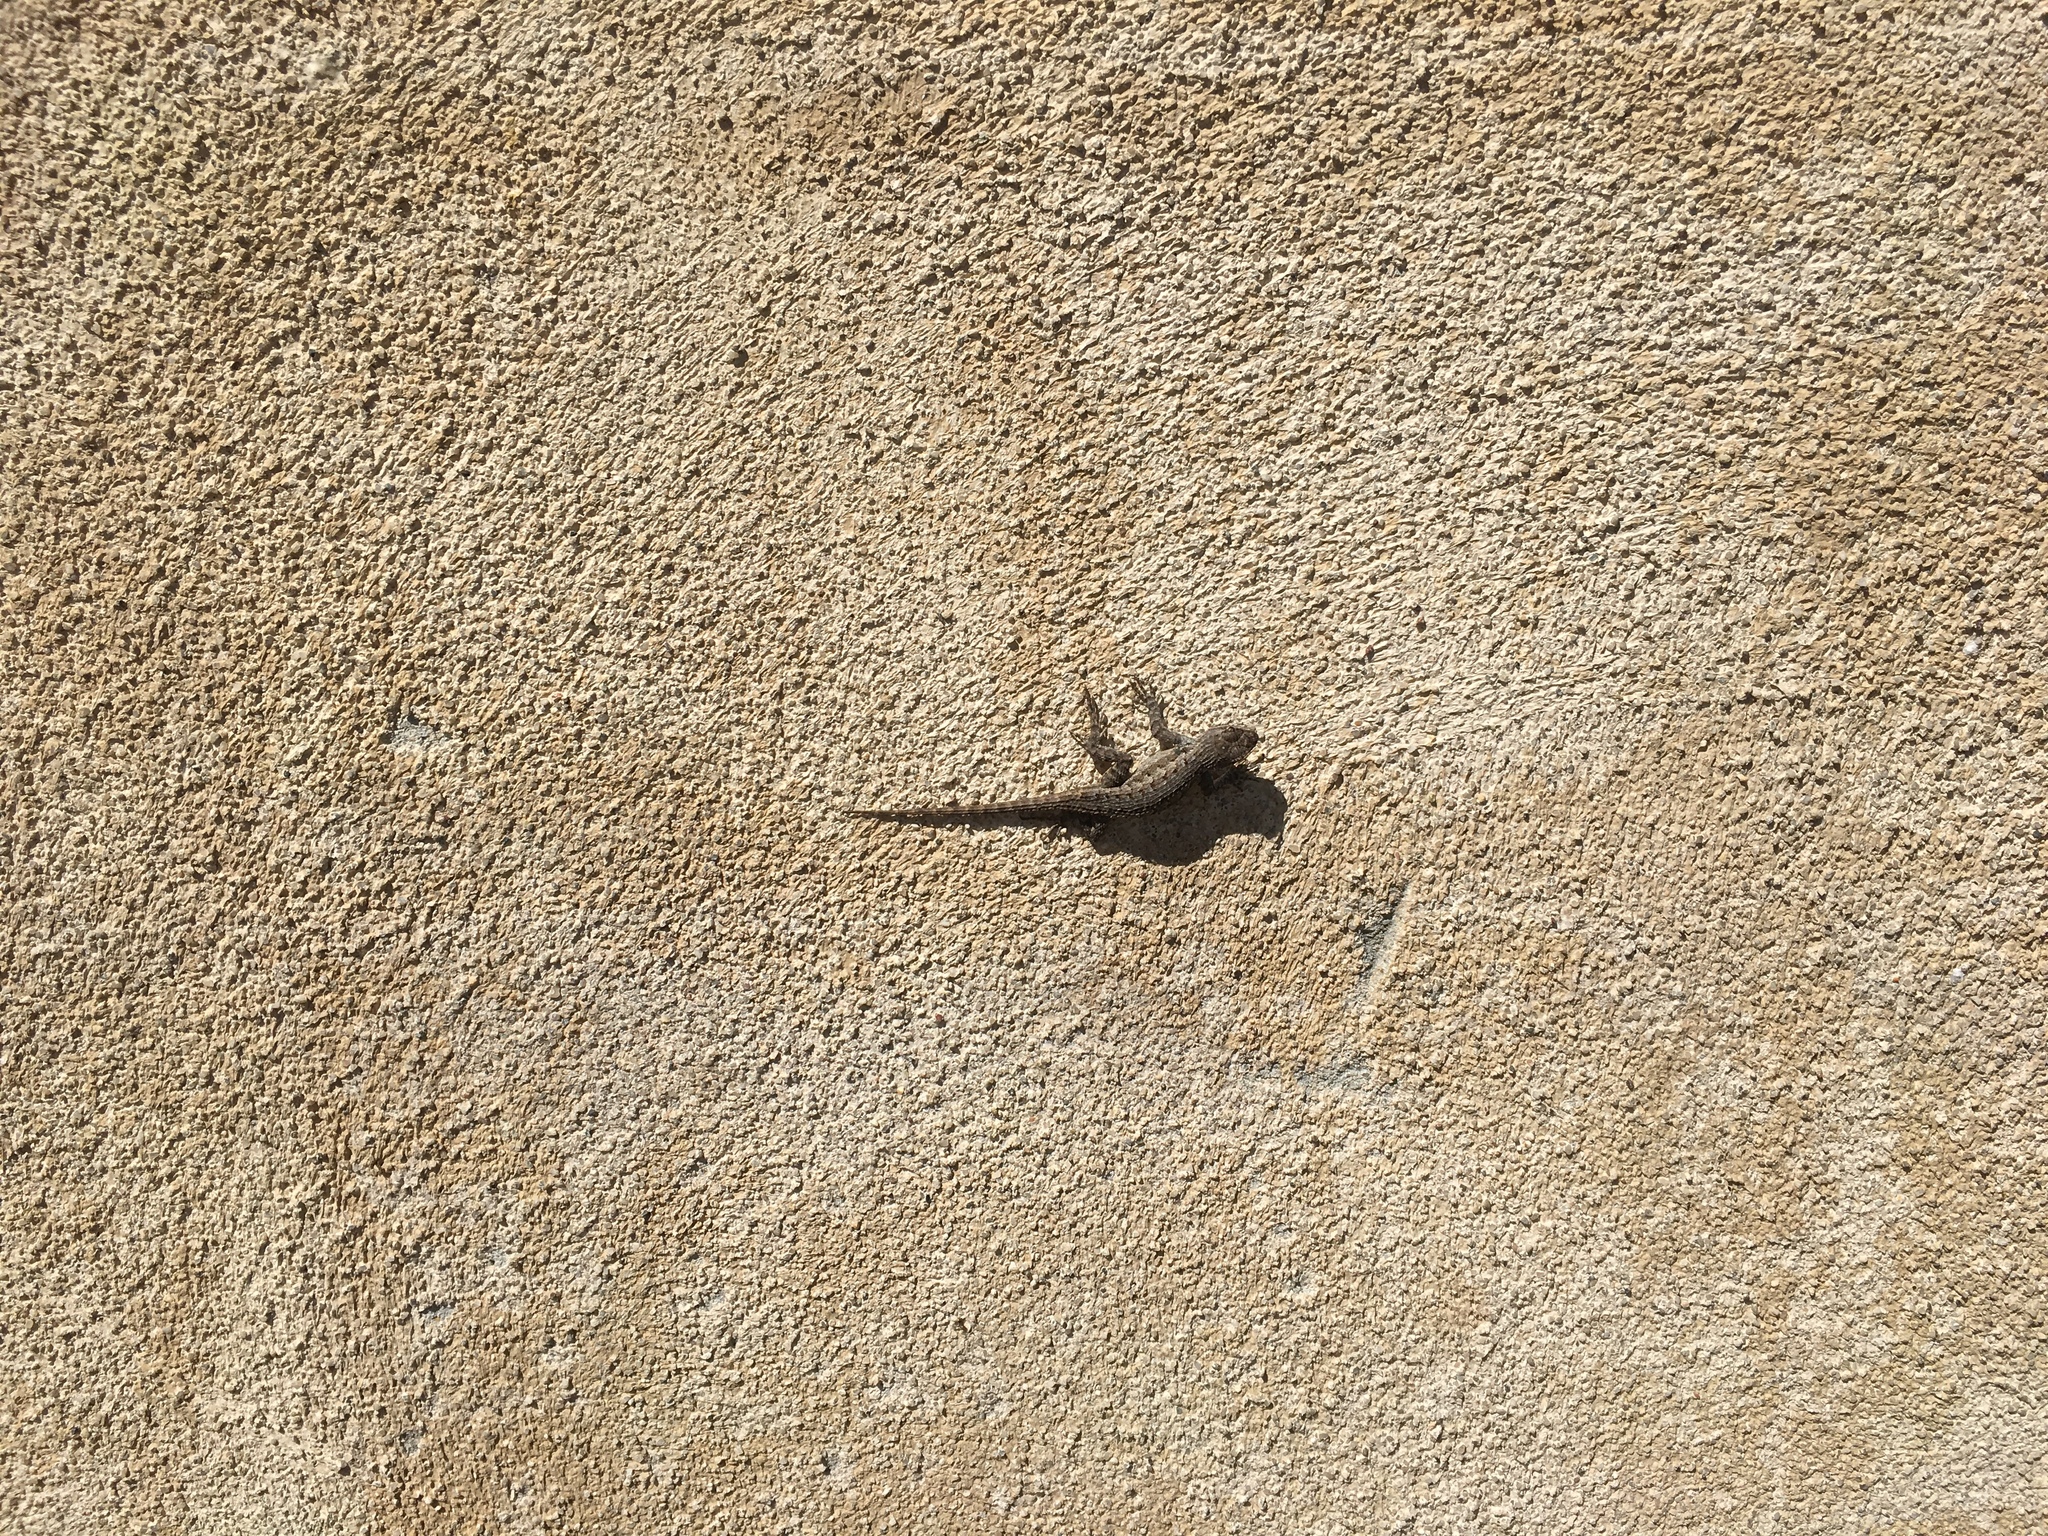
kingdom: Animalia
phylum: Chordata
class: Squamata
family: Phrynosomatidae
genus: Sceloporus
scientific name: Sceloporus occidentalis
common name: Western fence lizard
